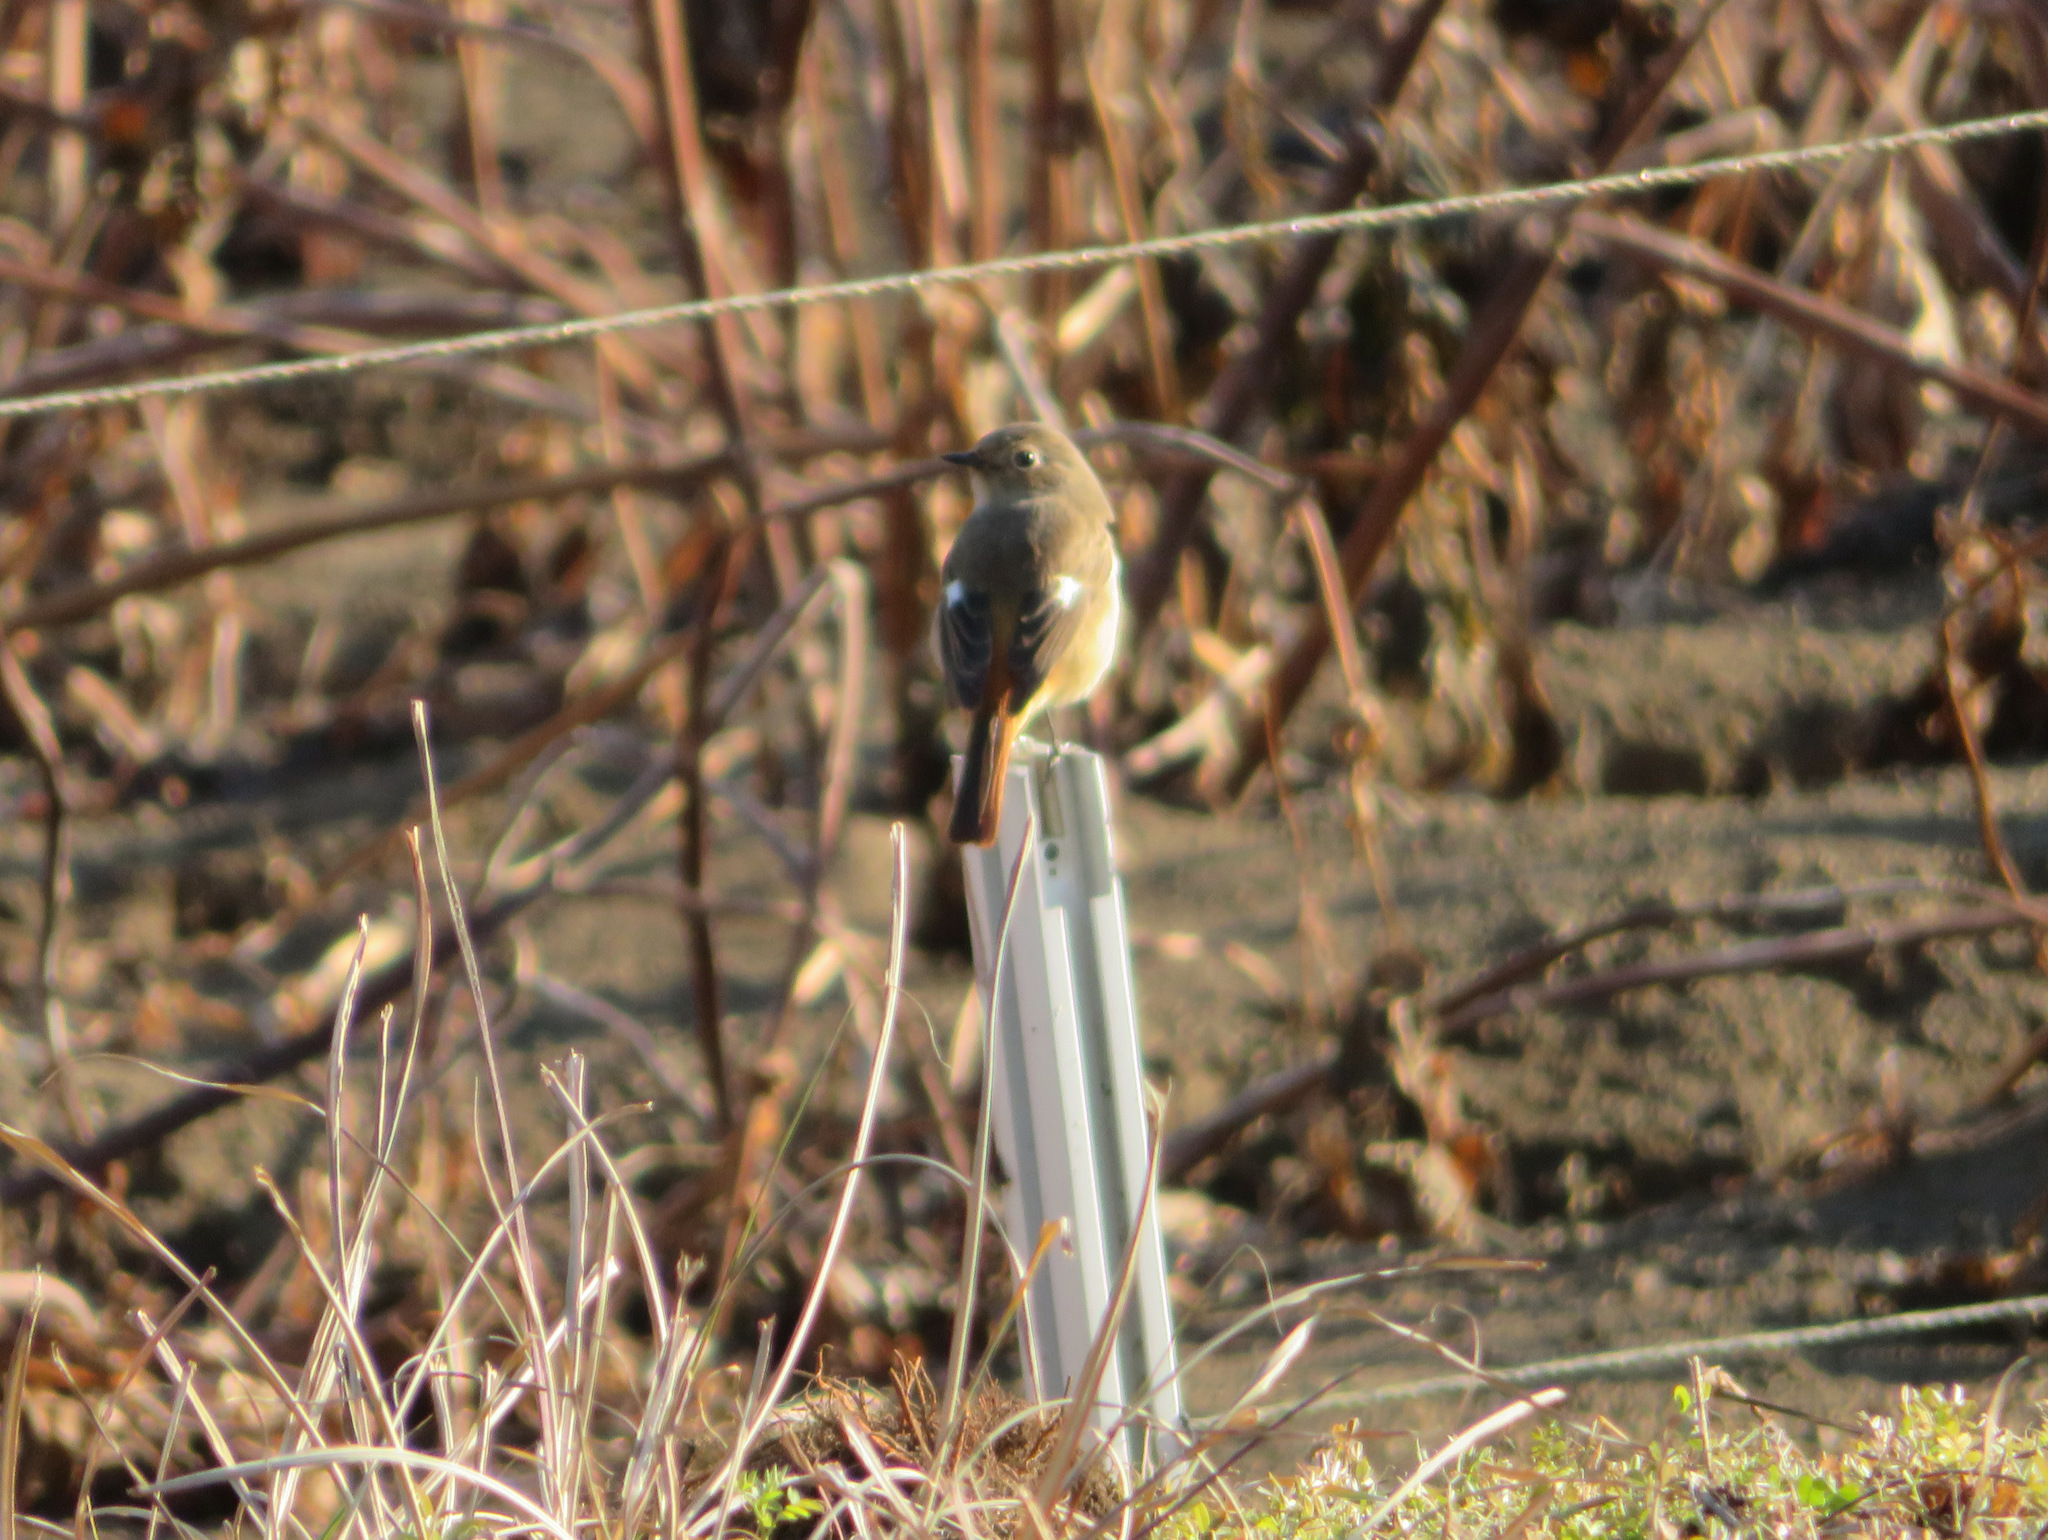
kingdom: Animalia
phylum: Chordata
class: Aves
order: Passeriformes
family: Muscicapidae
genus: Phoenicurus
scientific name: Phoenicurus auroreus
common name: Daurian redstart
